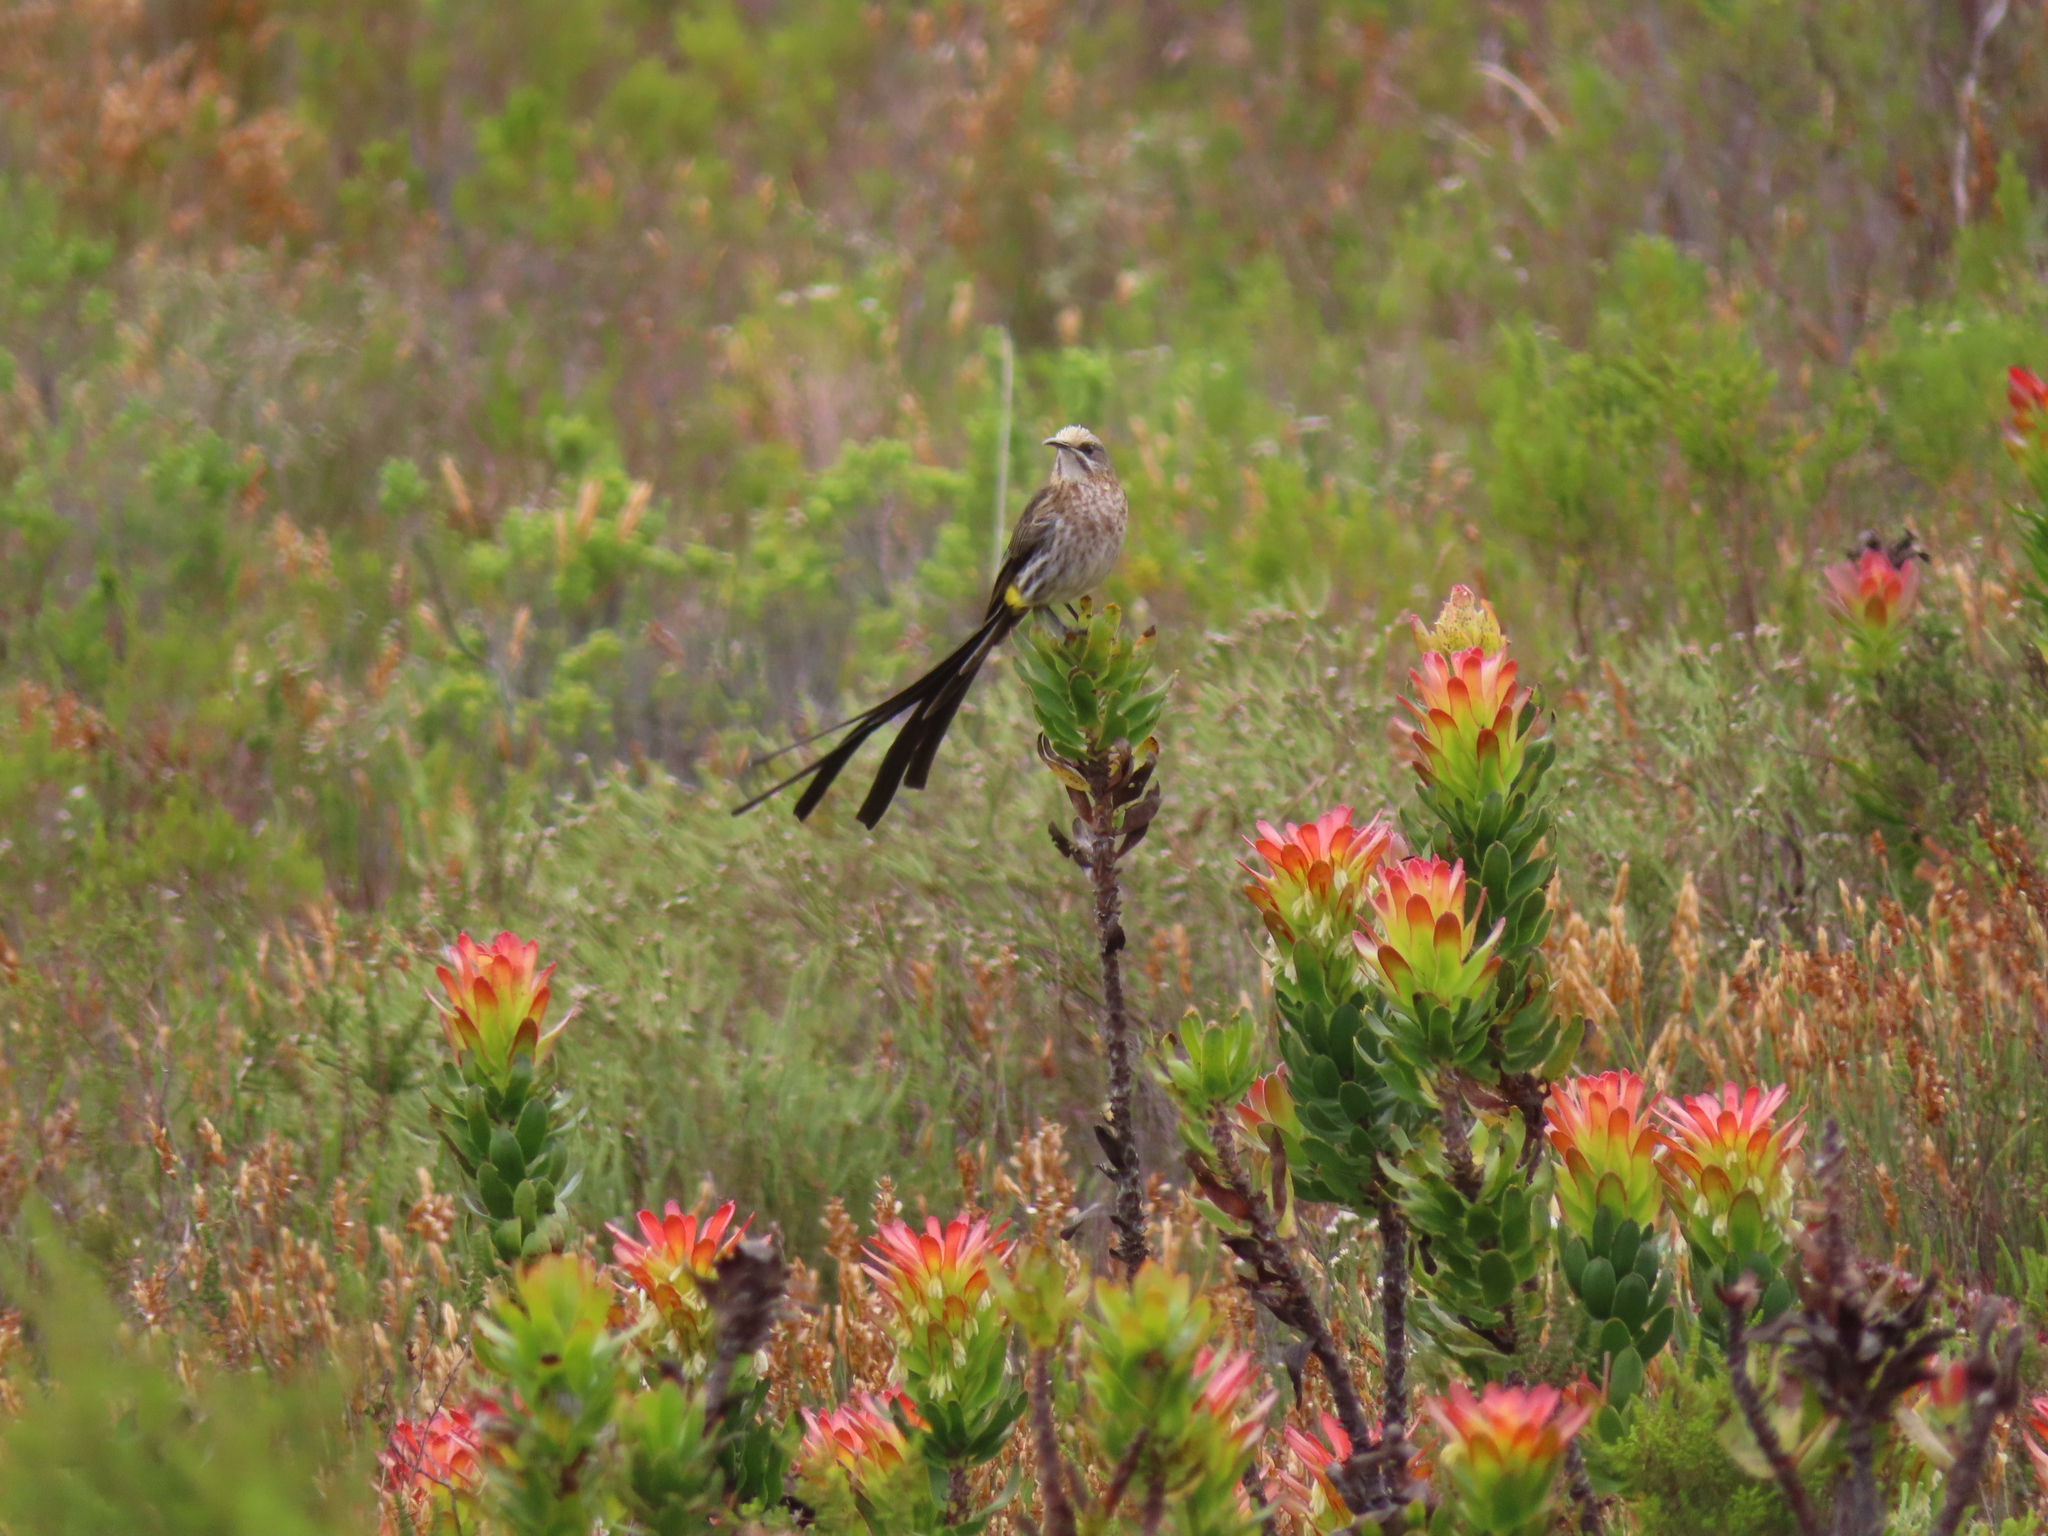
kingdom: Animalia
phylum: Chordata
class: Aves
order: Passeriformes
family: Promeropidae
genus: Promerops
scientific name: Promerops cafer
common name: Cape sugarbird
